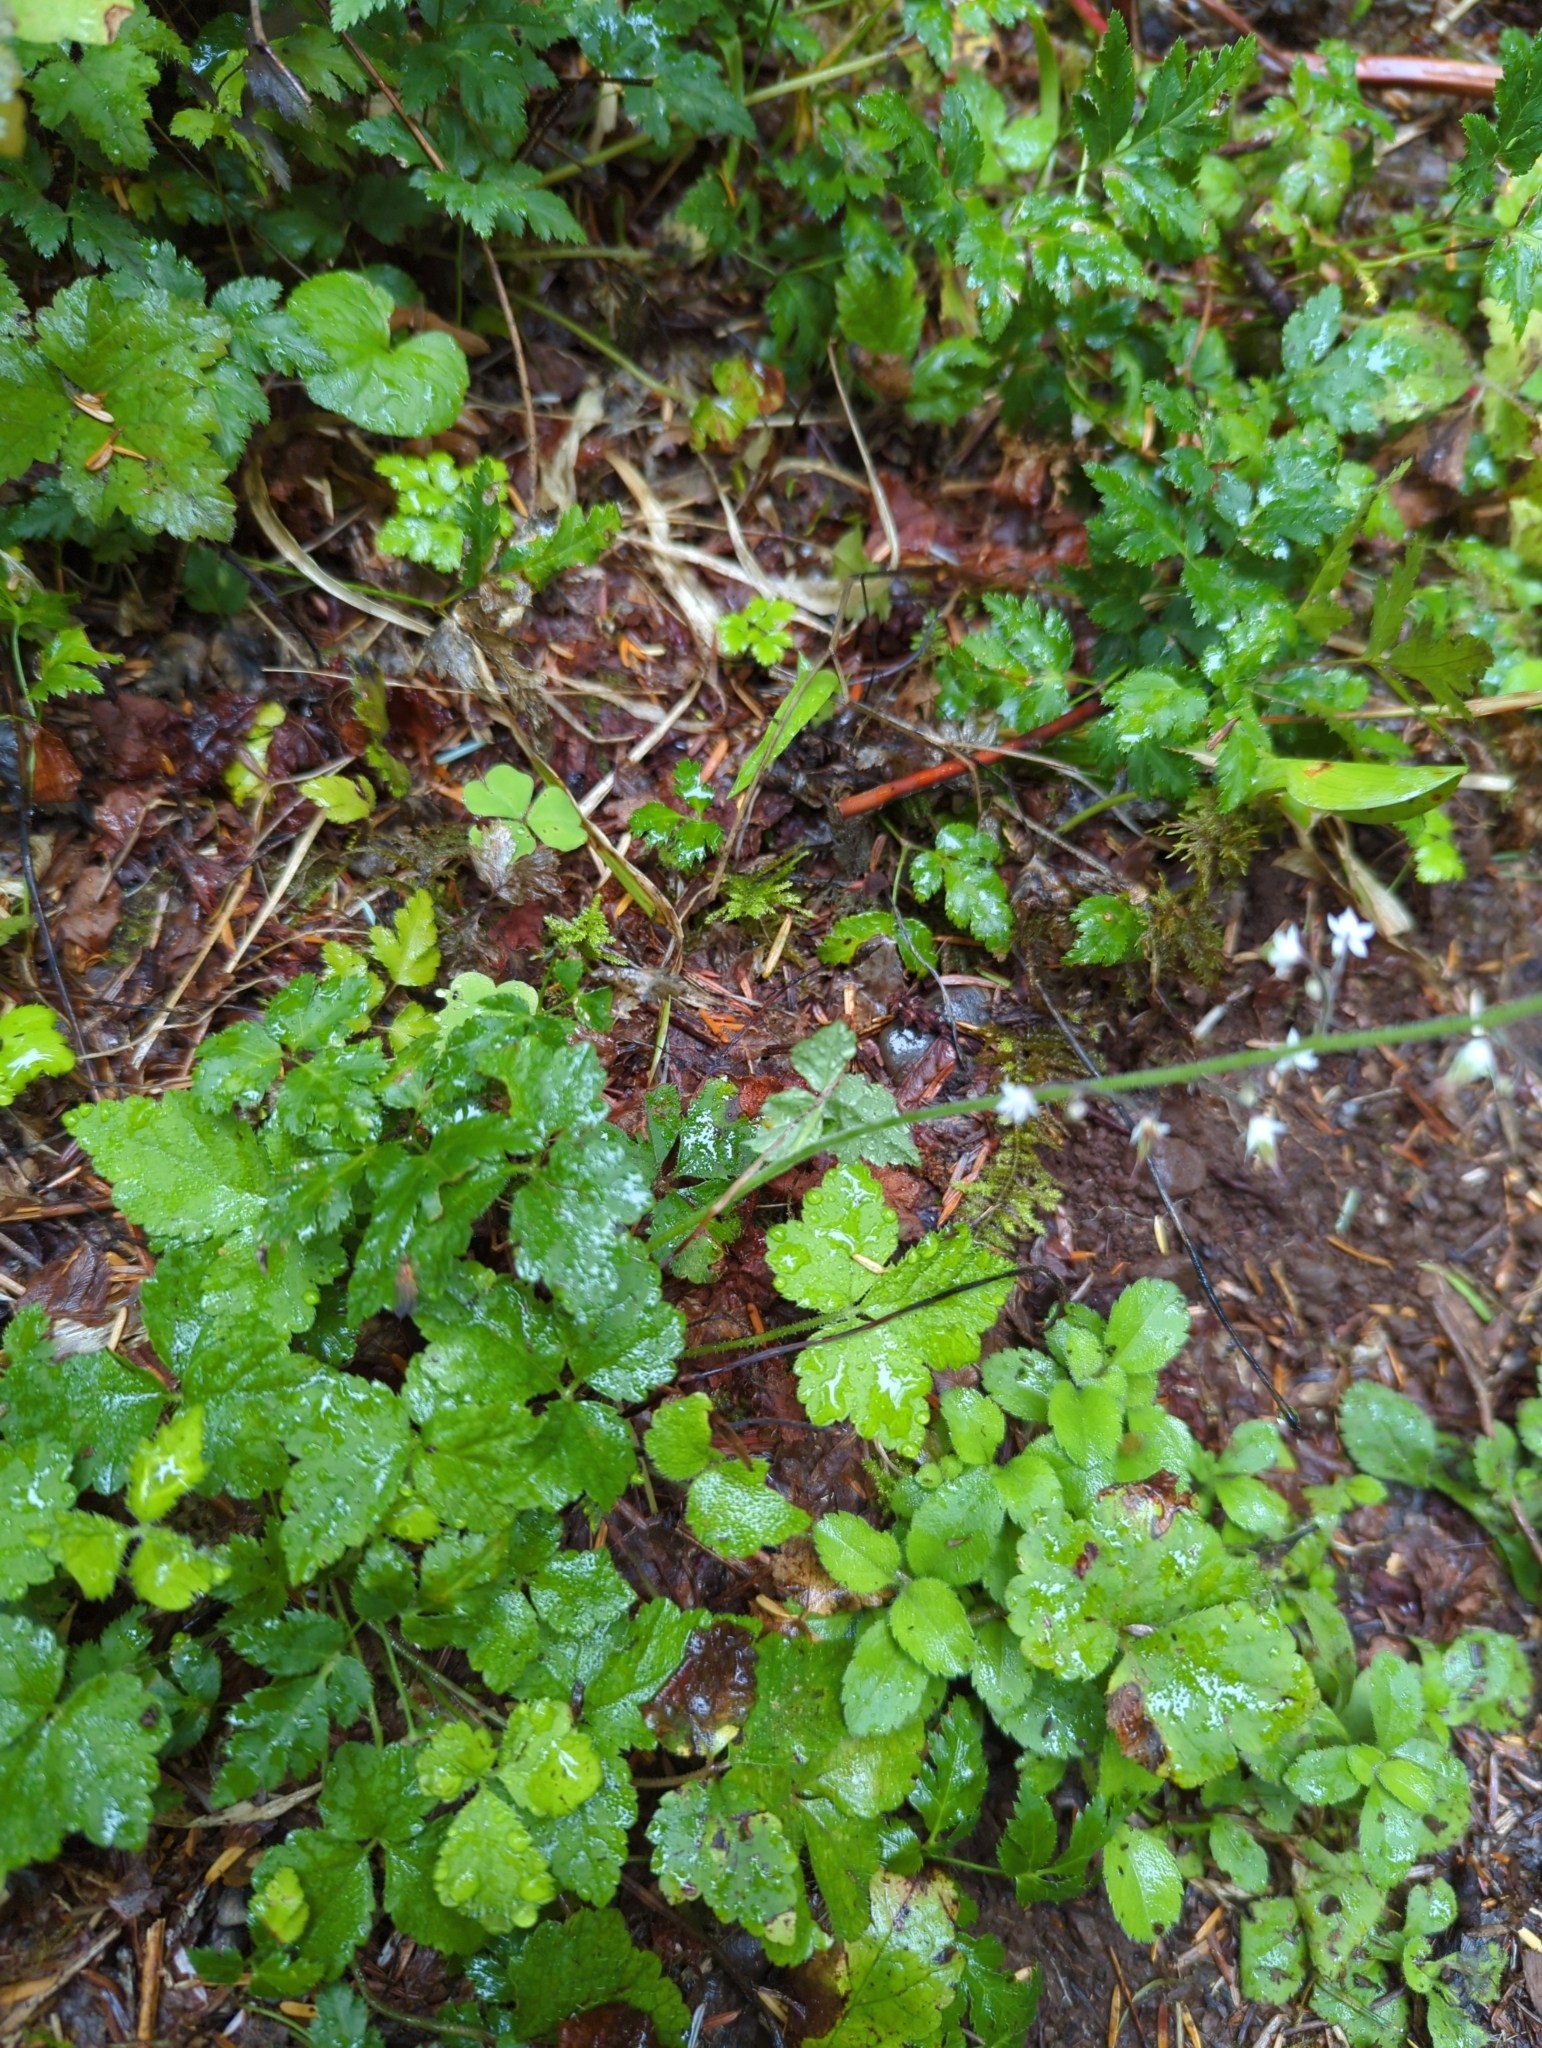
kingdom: Plantae
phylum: Tracheophyta
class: Magnoliopsida
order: Saxifragales
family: Saxifragaceae
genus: Tiarella
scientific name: Tiarella trifoliata
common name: Sugar-scoop
